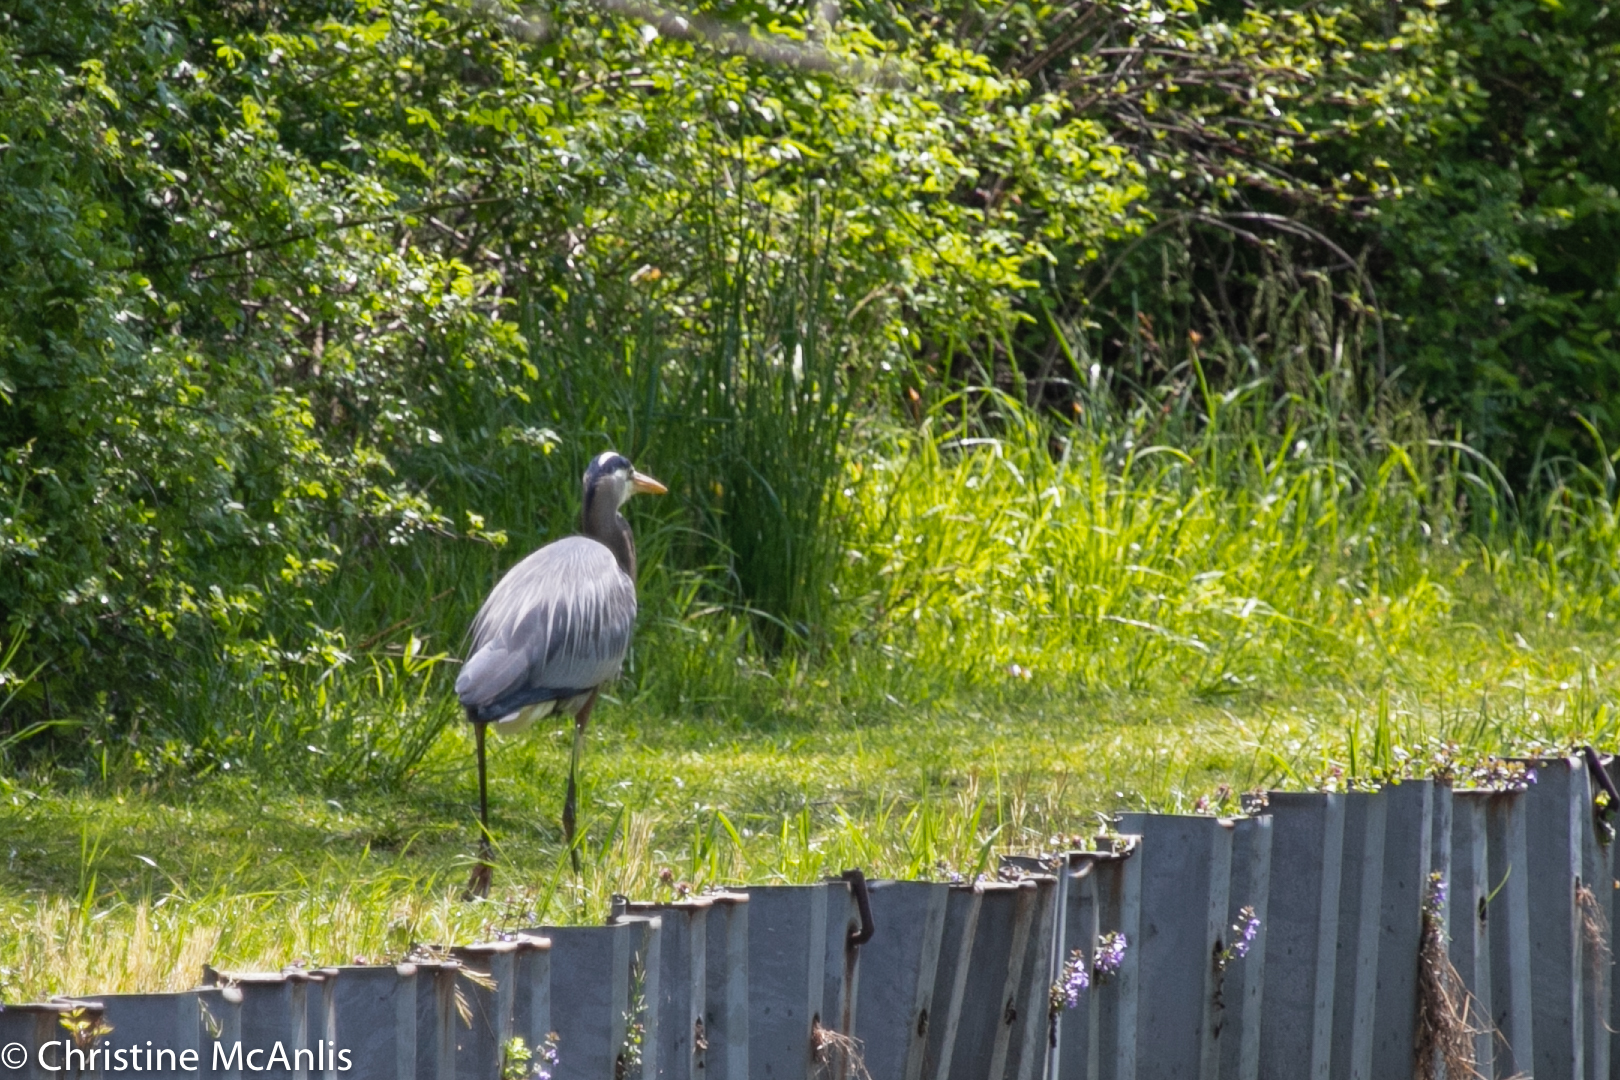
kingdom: Animalia
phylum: Chordata
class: Aves
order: Pelecaniformes
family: Ardeidae
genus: Ardea
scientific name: Ardea herodias
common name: Great blue heron
